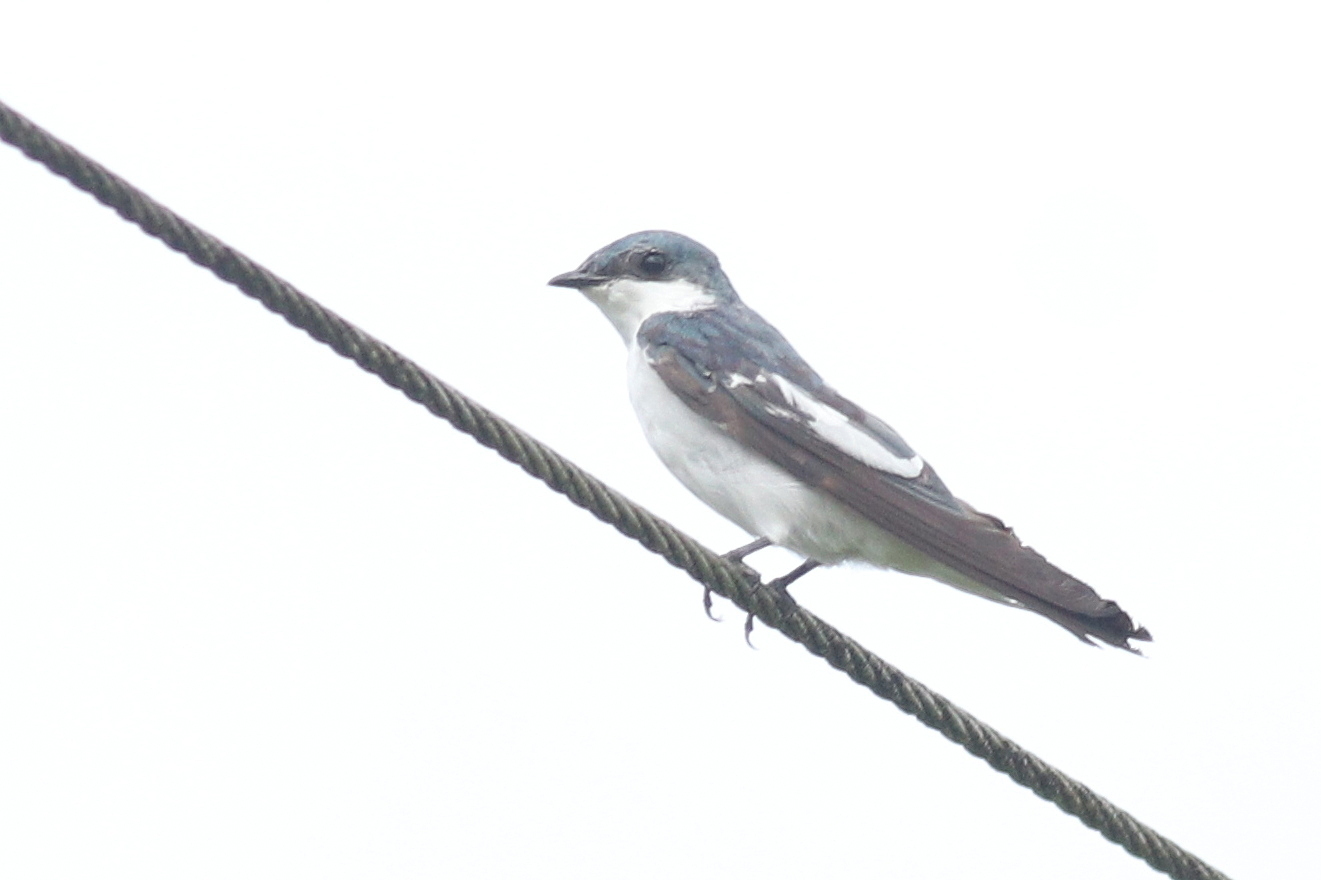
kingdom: Animalia
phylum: Chordata
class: Aves
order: Passeriformes
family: Hirundinidae
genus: Tachycineta
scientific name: Tachycineta albiventer
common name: White-winged swallow
